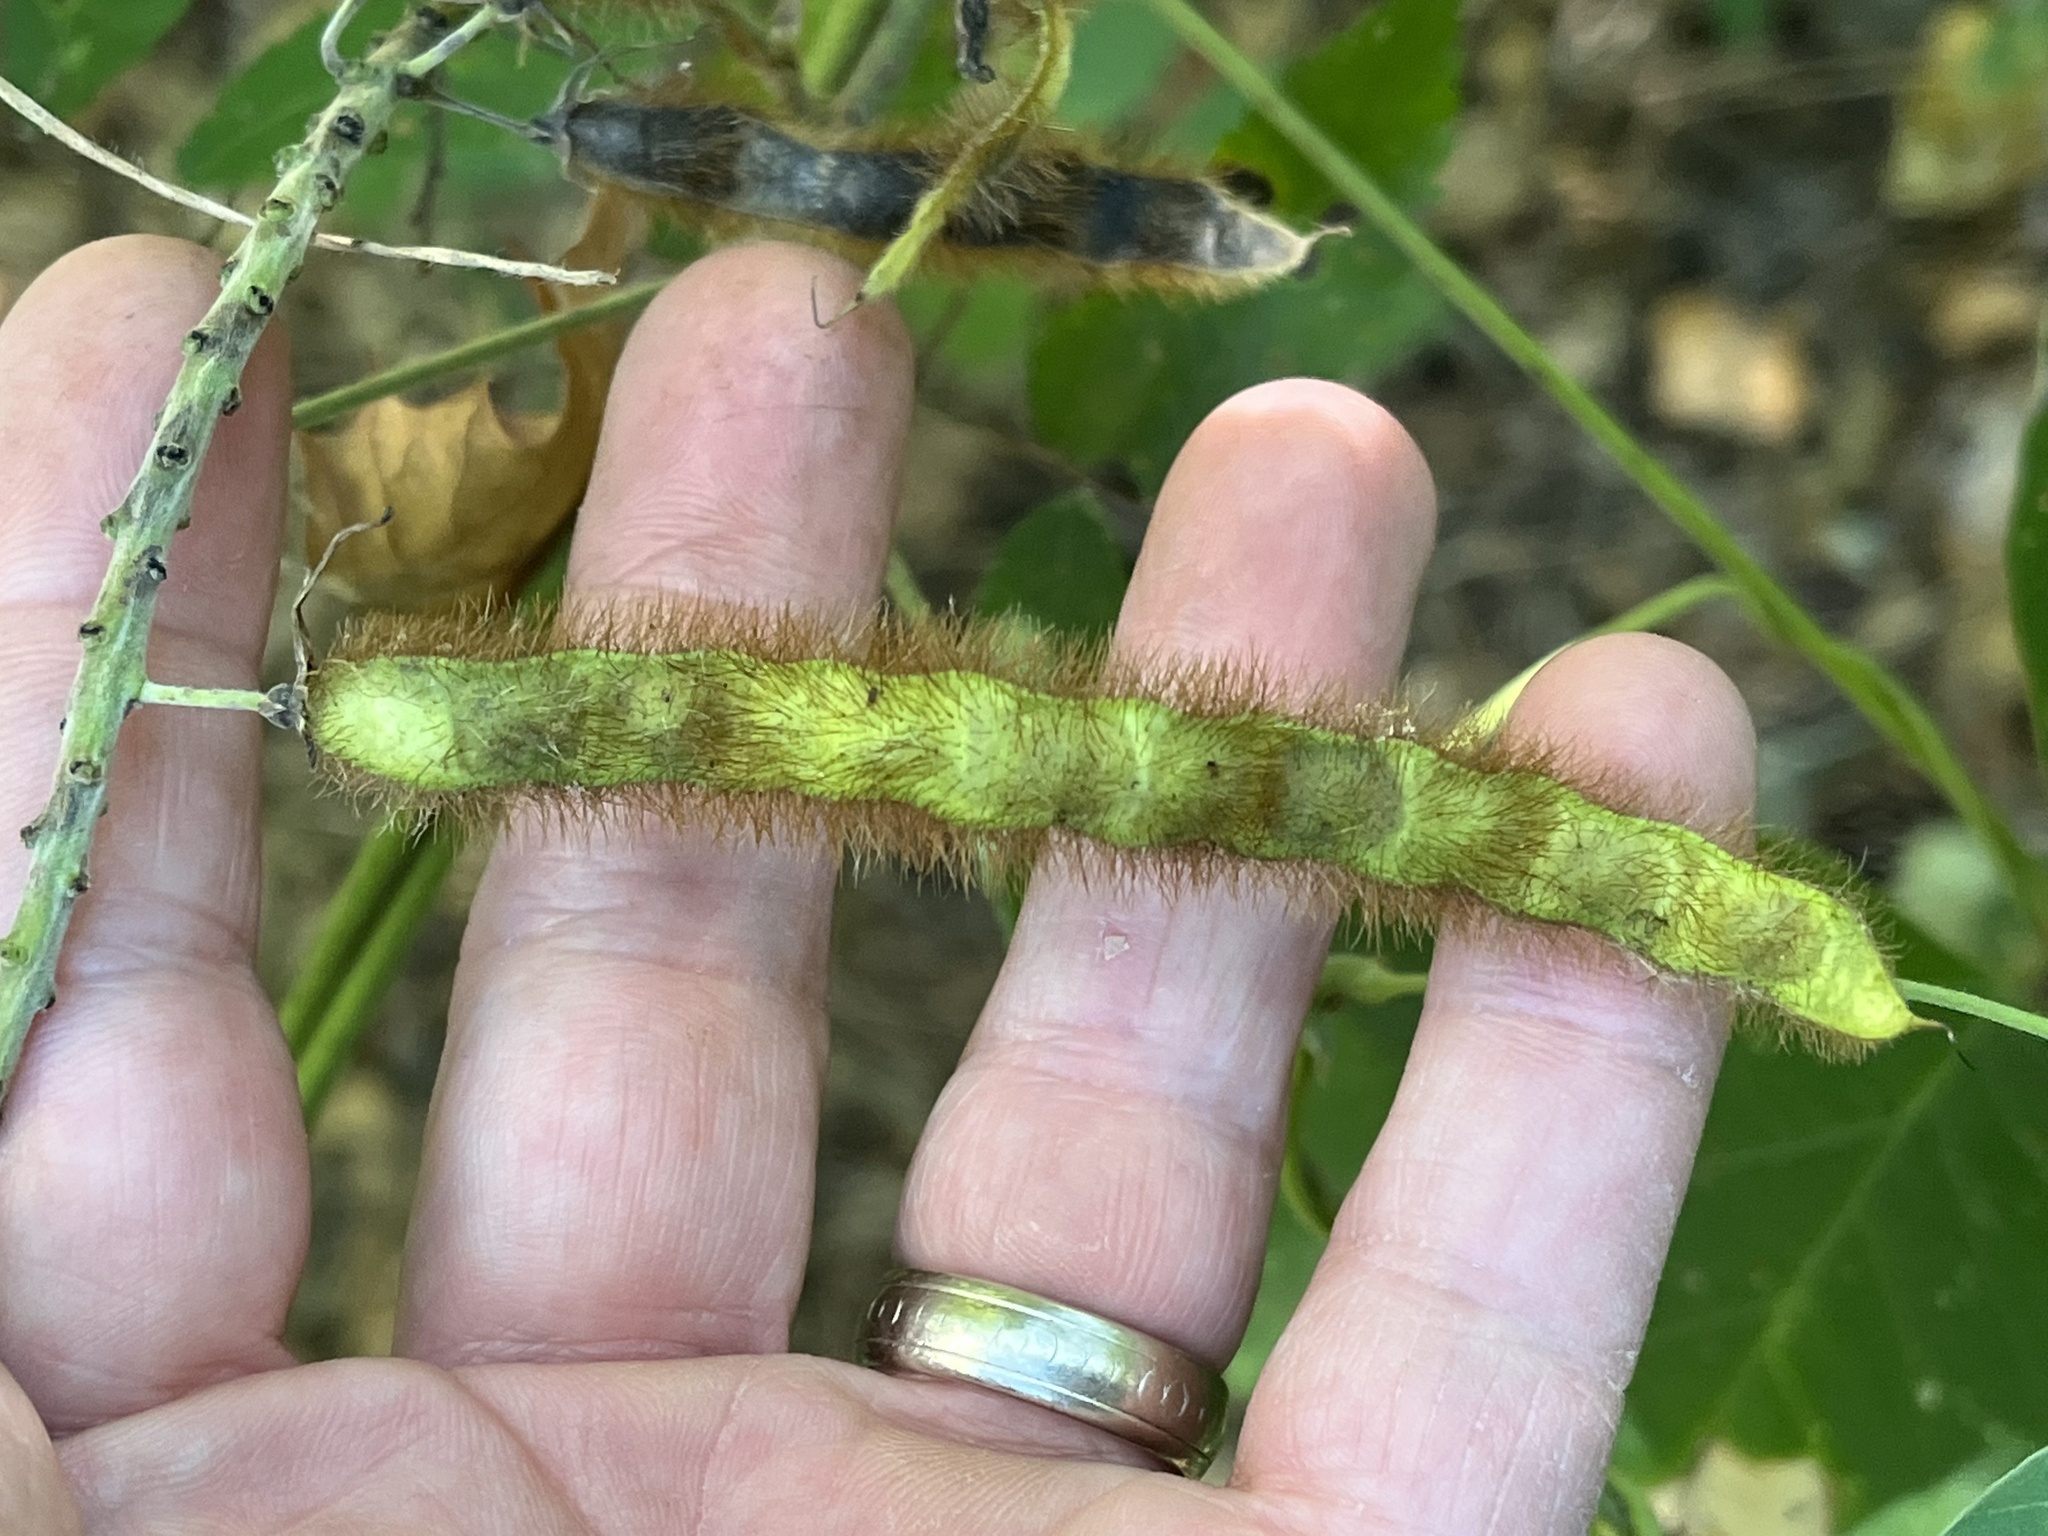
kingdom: Plantae
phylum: Tracheophyta
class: Magnoliopsida
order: Fabales
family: Fabaceae
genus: Pueraria
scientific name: Pueraria montana
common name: Kudzu
